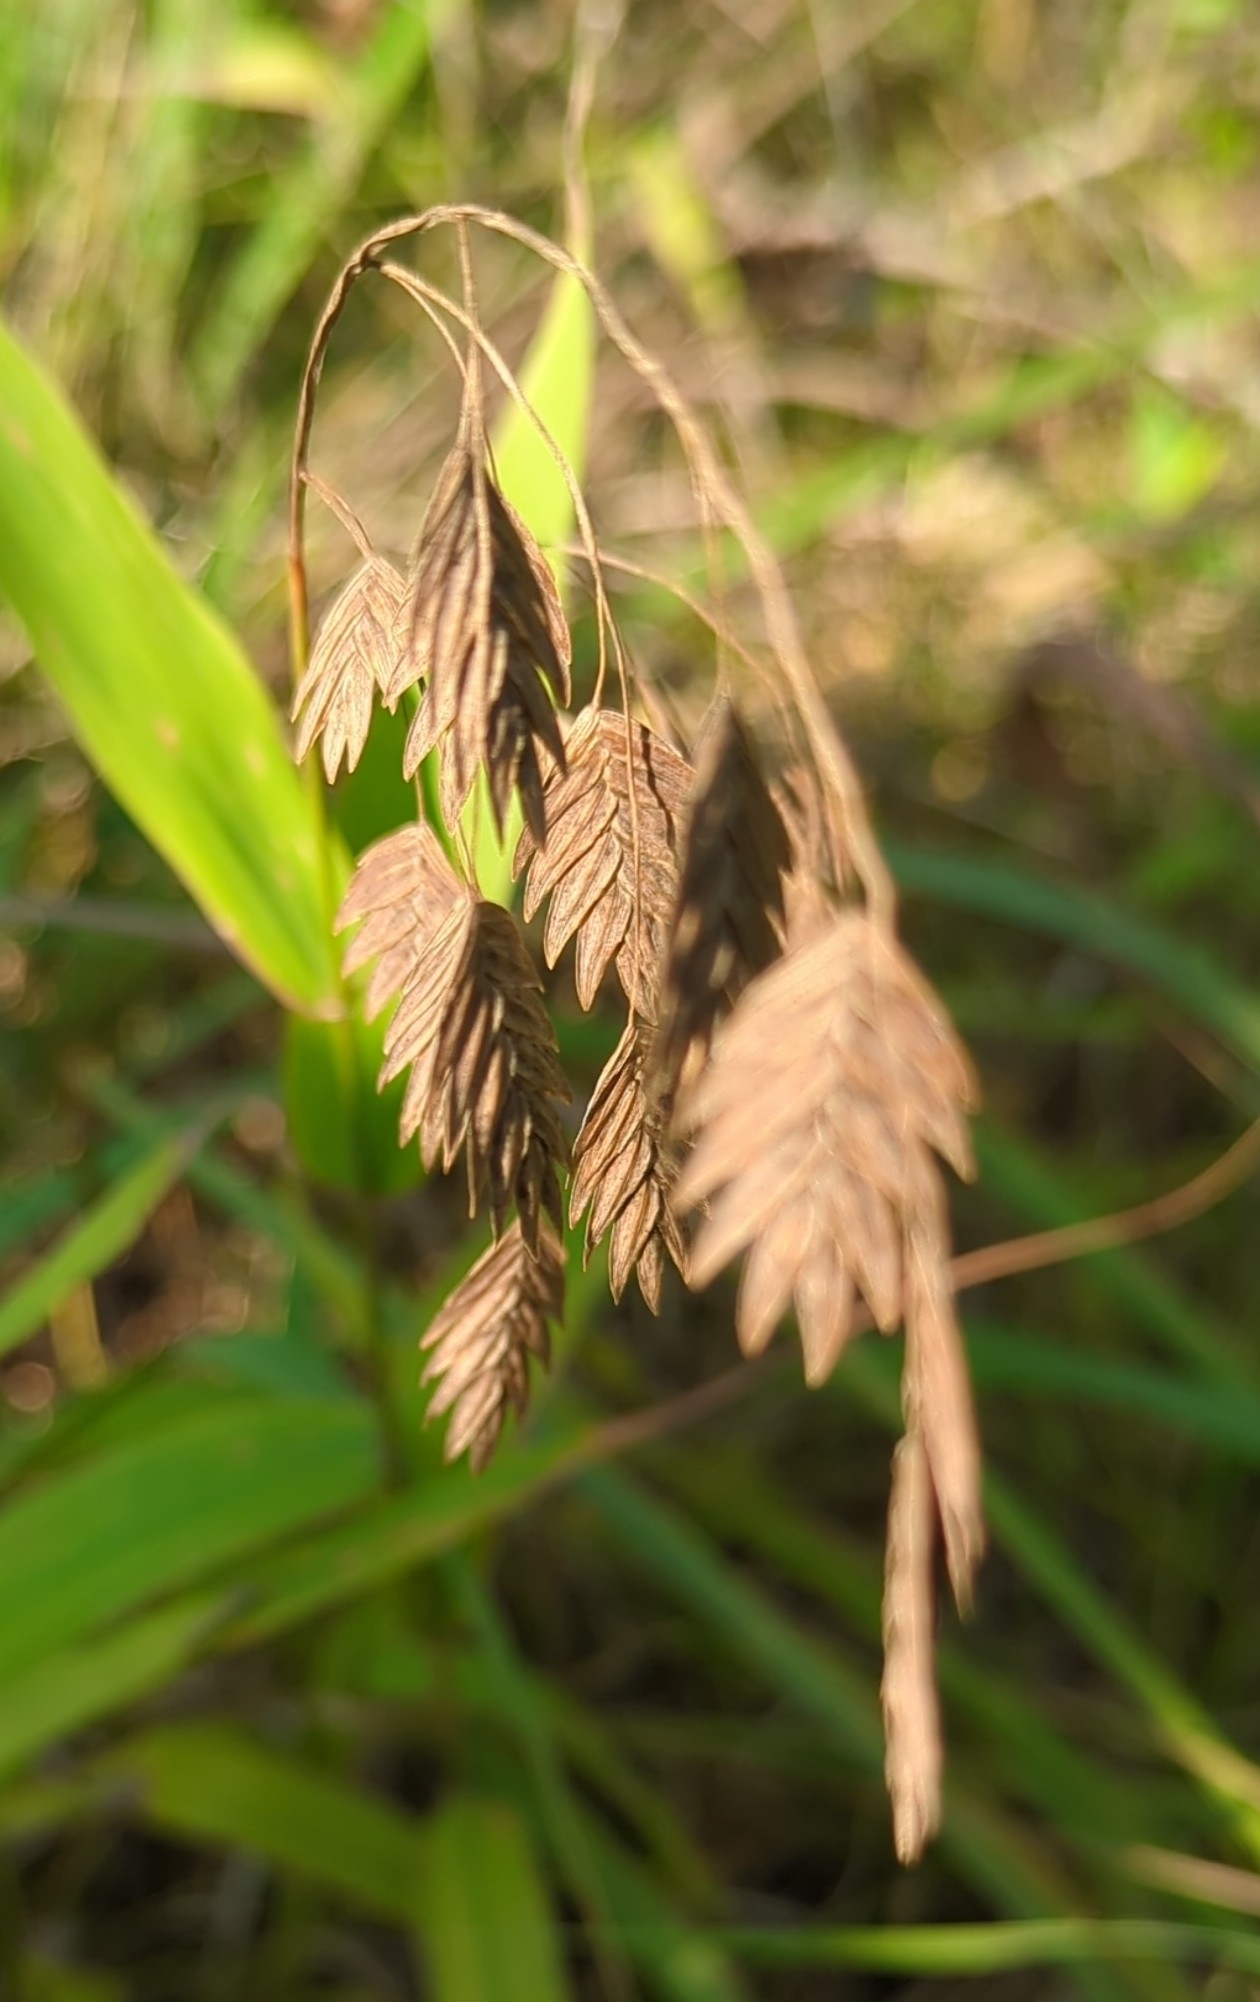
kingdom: Plantae
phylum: Tracheophyta
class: Liliopsida
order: Poales
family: Poaceae
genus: Chasmanthium
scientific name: Chasmanthium latifolium
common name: Broad-leaved chasmanthium
